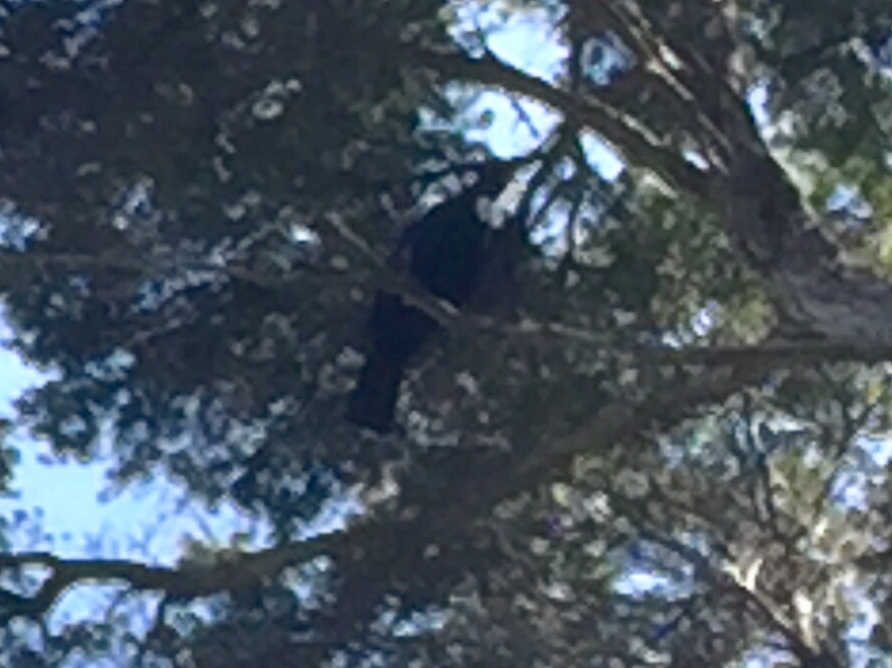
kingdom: Animalia
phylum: Chordata
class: Aves
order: Passeriformes
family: Meliphagidae
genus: Prosthemadera
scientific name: Prosthemadera novaeseelandiae
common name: Tui
